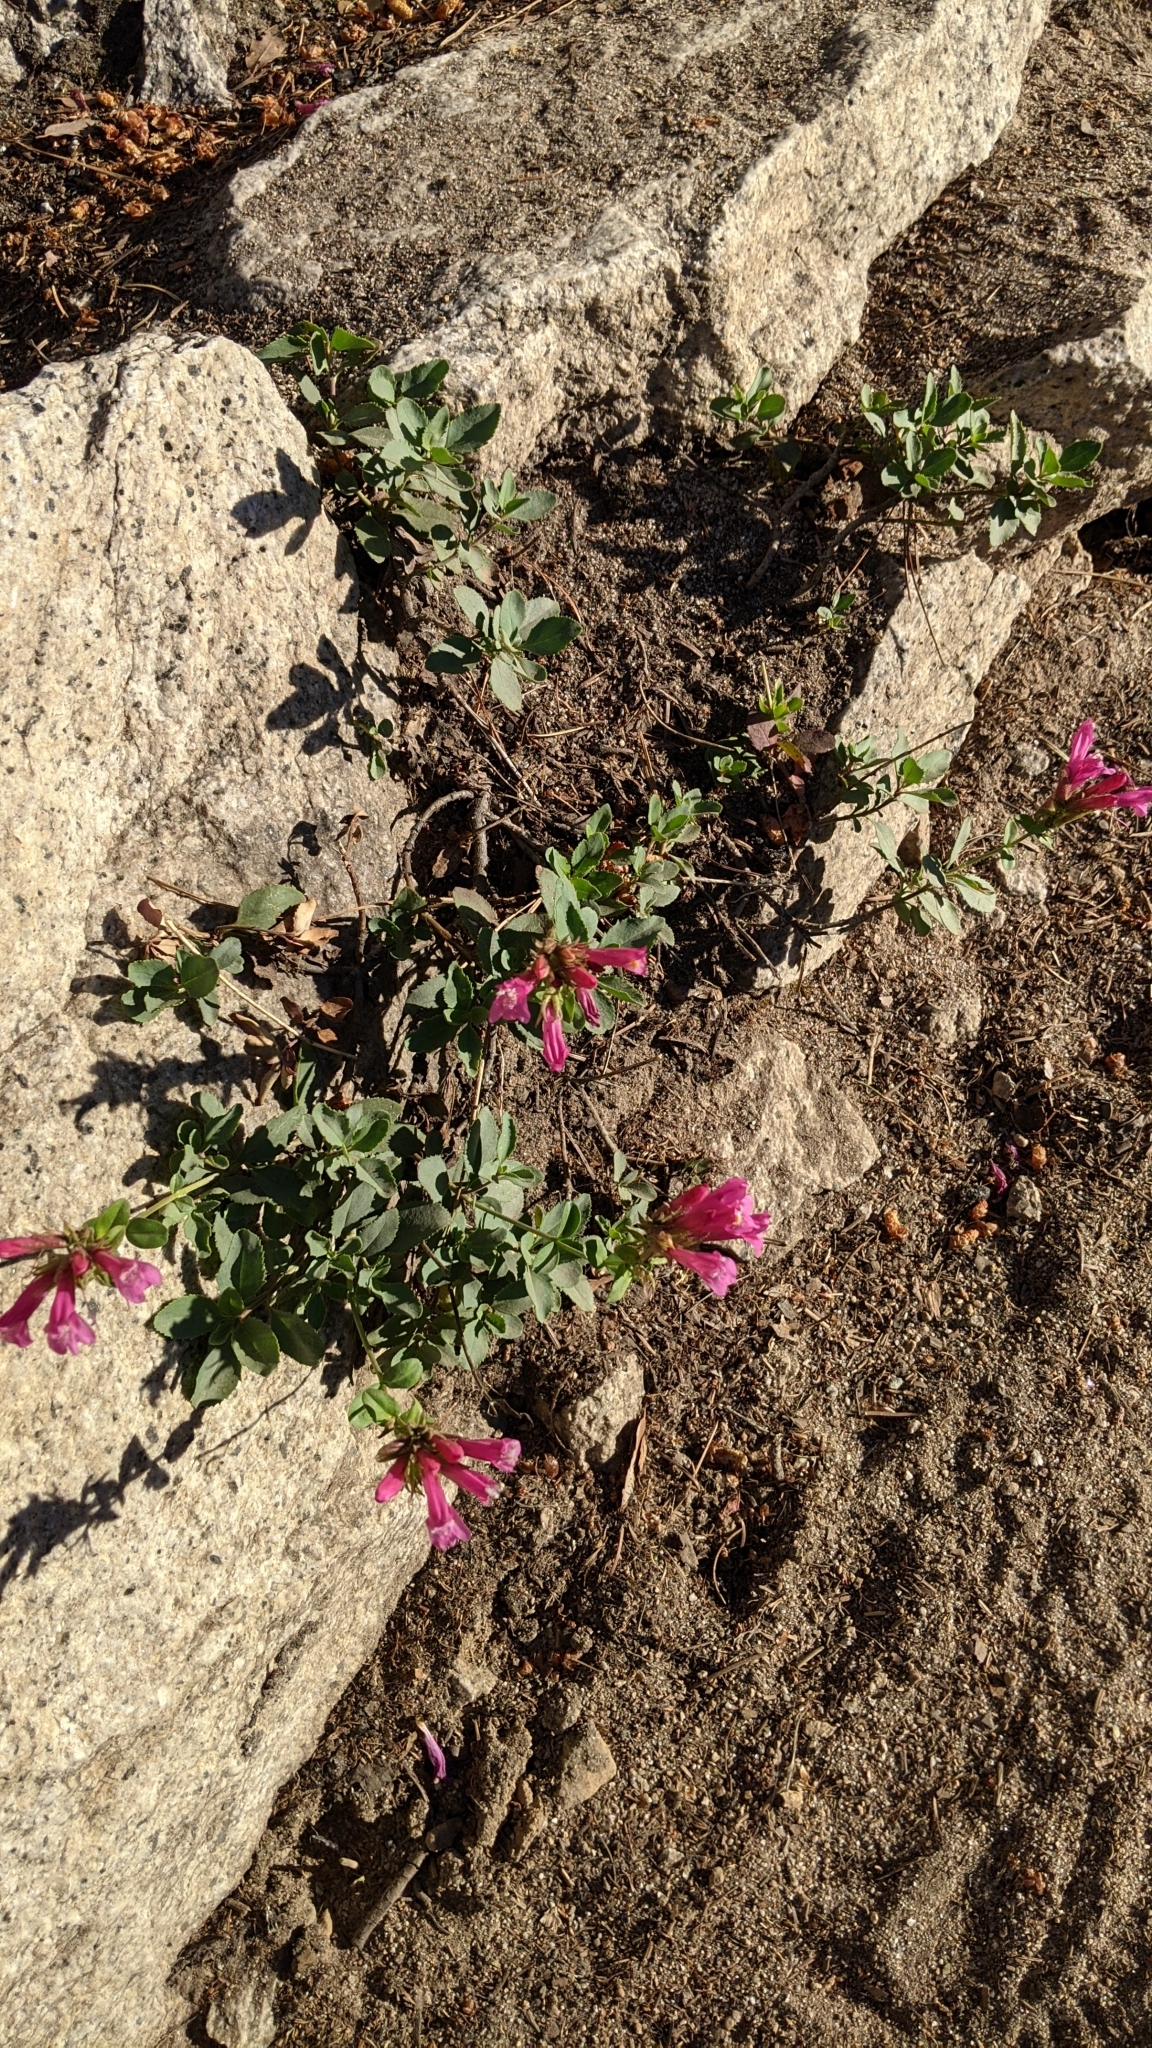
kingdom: Plantae
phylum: Tracheophyta
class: Magnoliopsida
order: Lamiales
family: Plantaginaceae
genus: Penstemon
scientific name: Penstemon newberryi
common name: Mountain-pride
